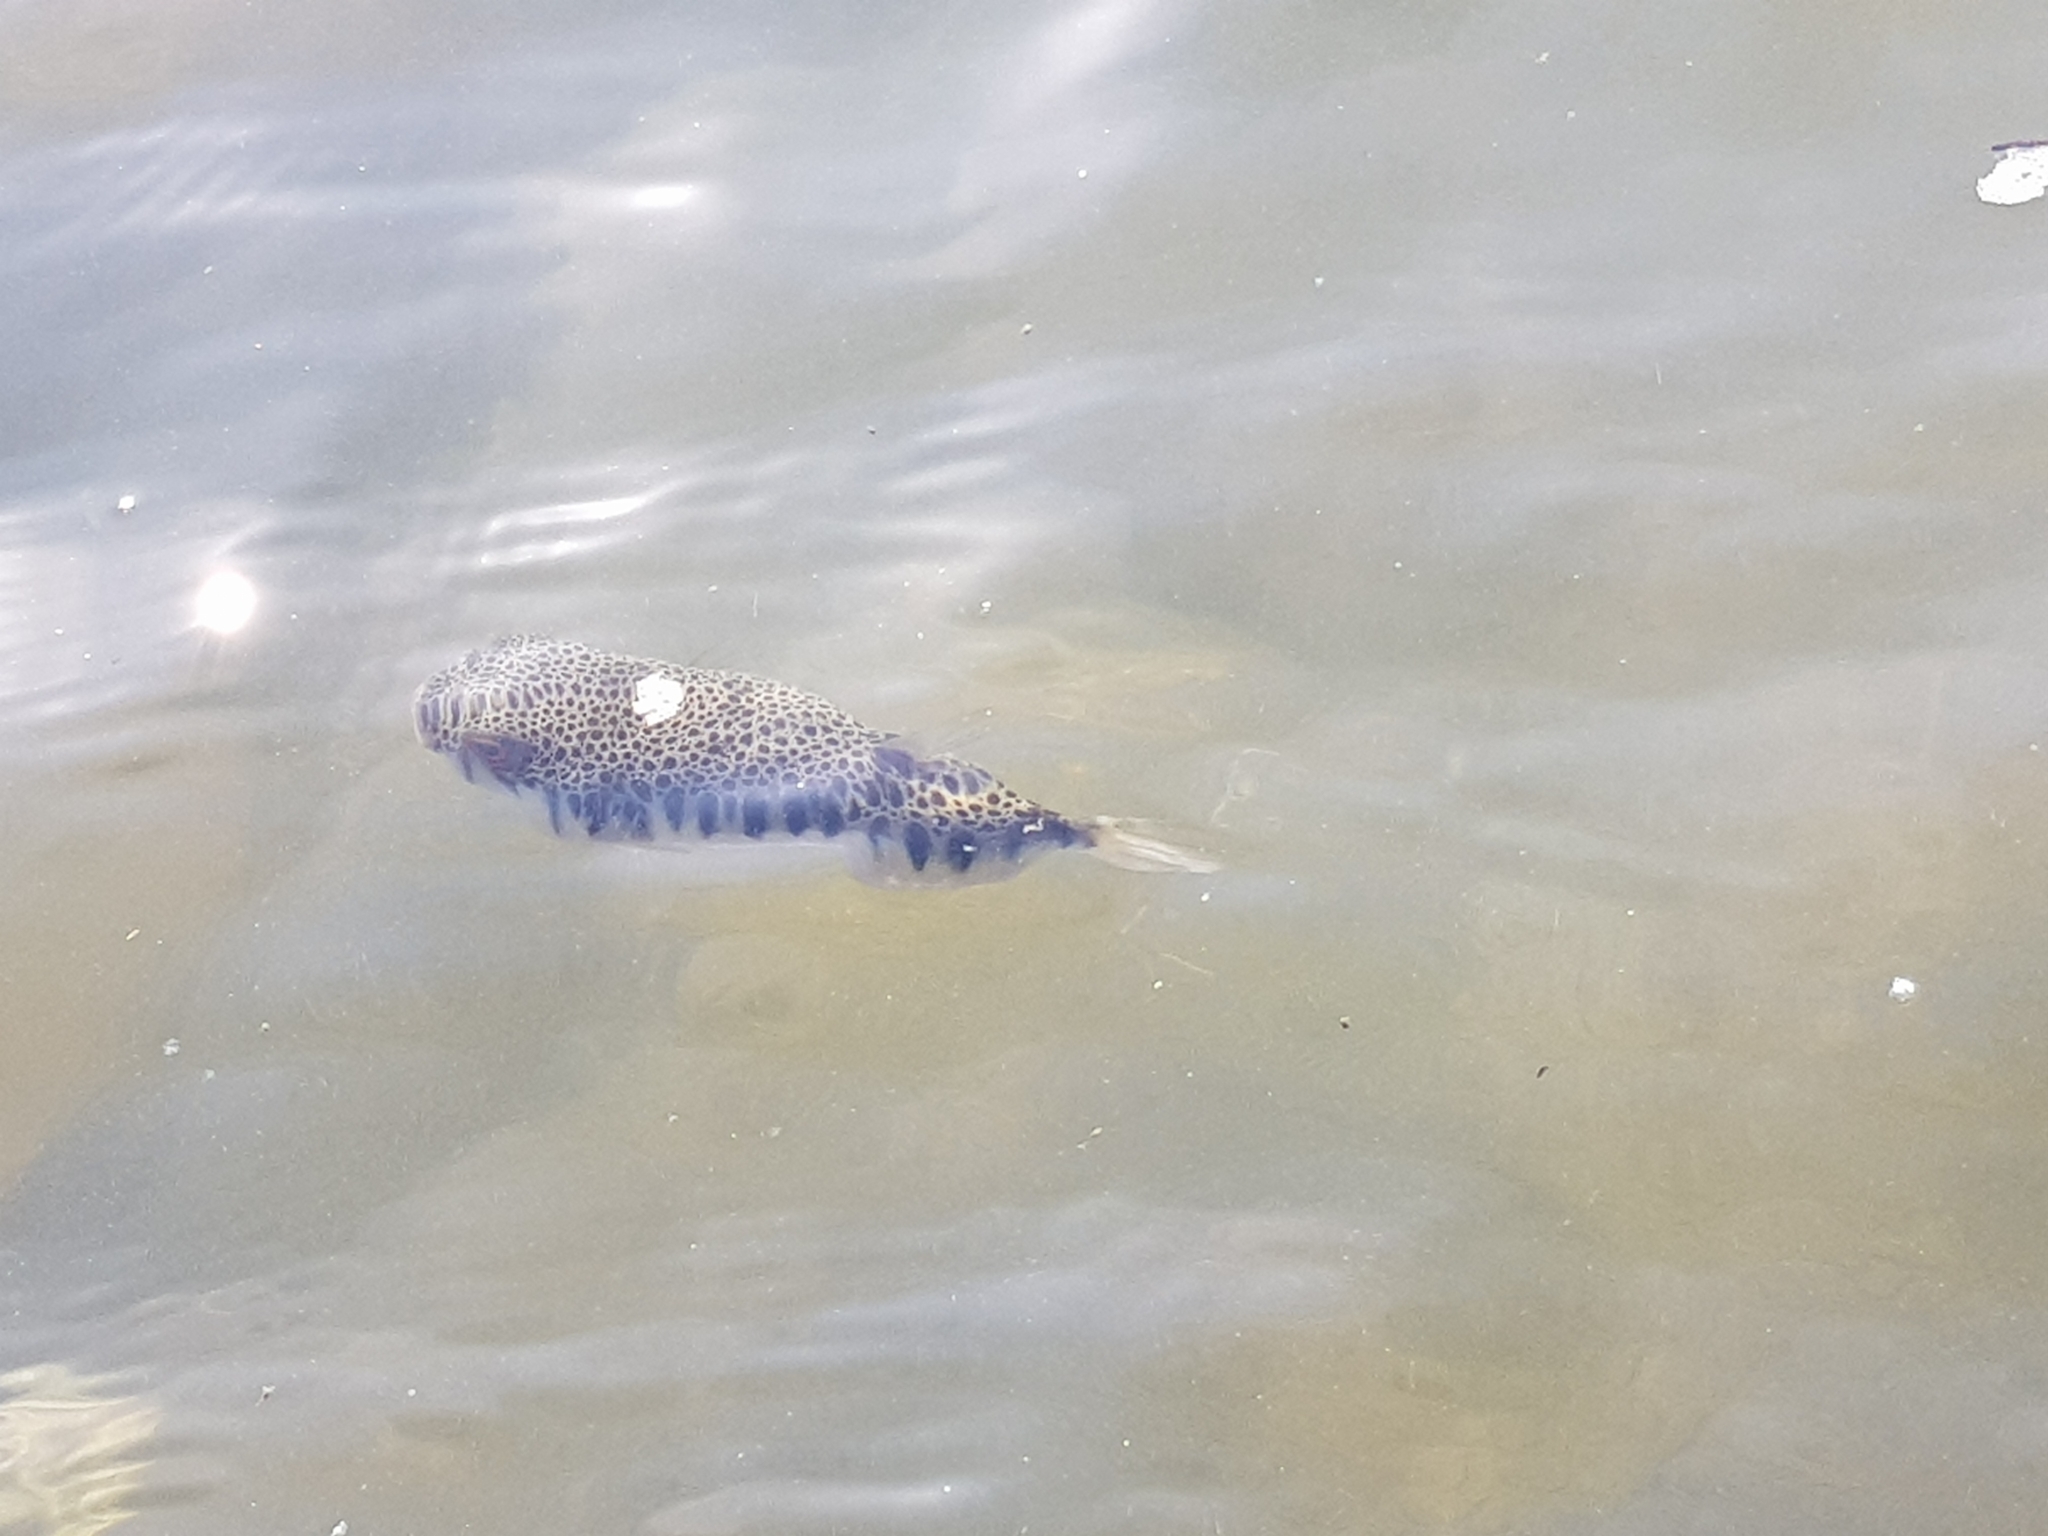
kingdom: Animalia
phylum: Chordata
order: Tetraodontiformes
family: Tetraodontidae
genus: Tetractenos
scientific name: Tetractenos hamiltoni
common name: Common toadfish
